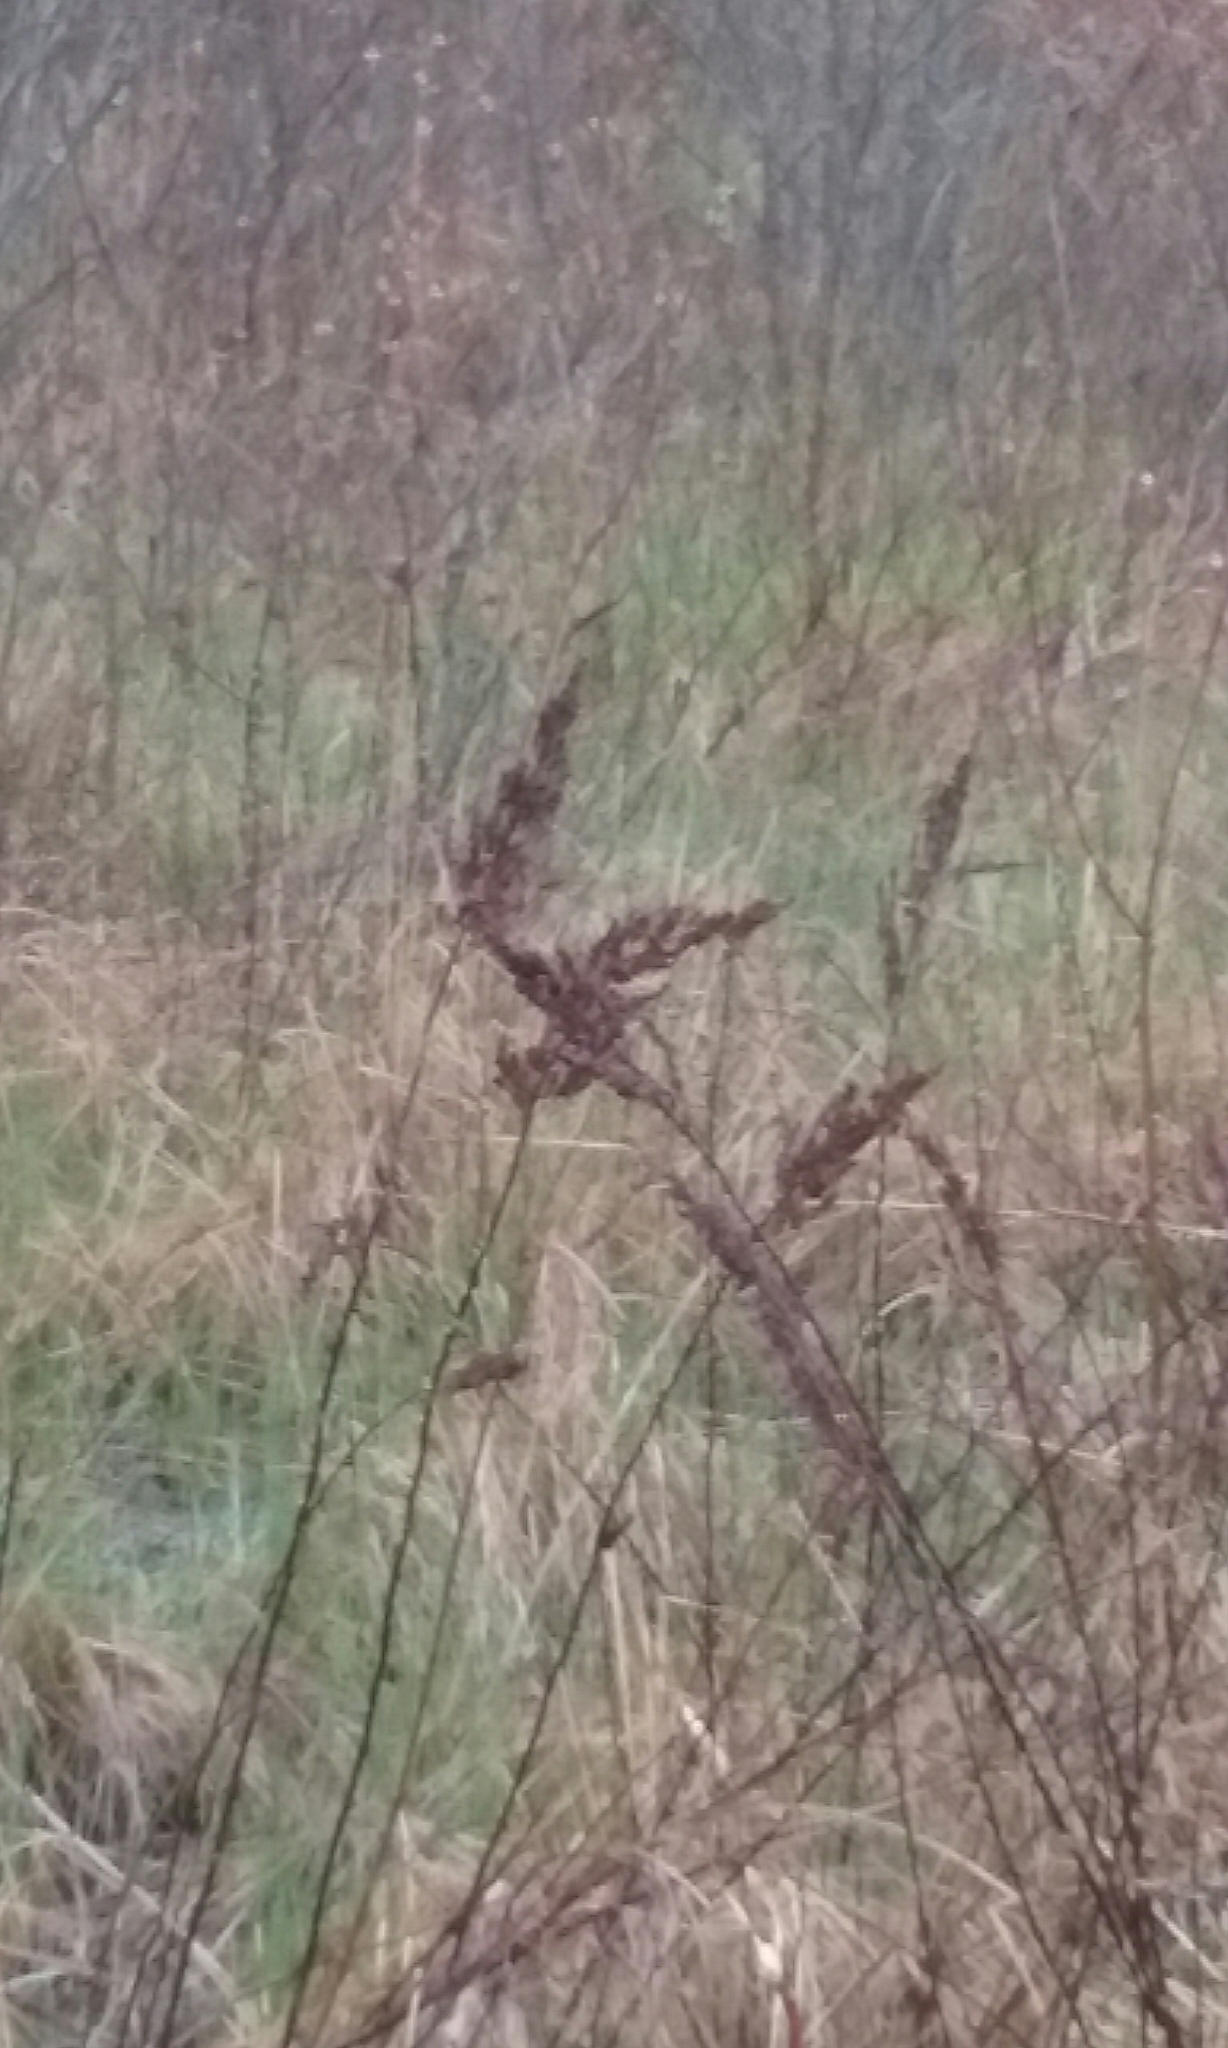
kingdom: Plantae
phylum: Tracheophyta
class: Magnoliopsida
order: Rosales
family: Rosaceae
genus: Spiraea
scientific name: Spiraea tomentosa
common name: Hardhack
